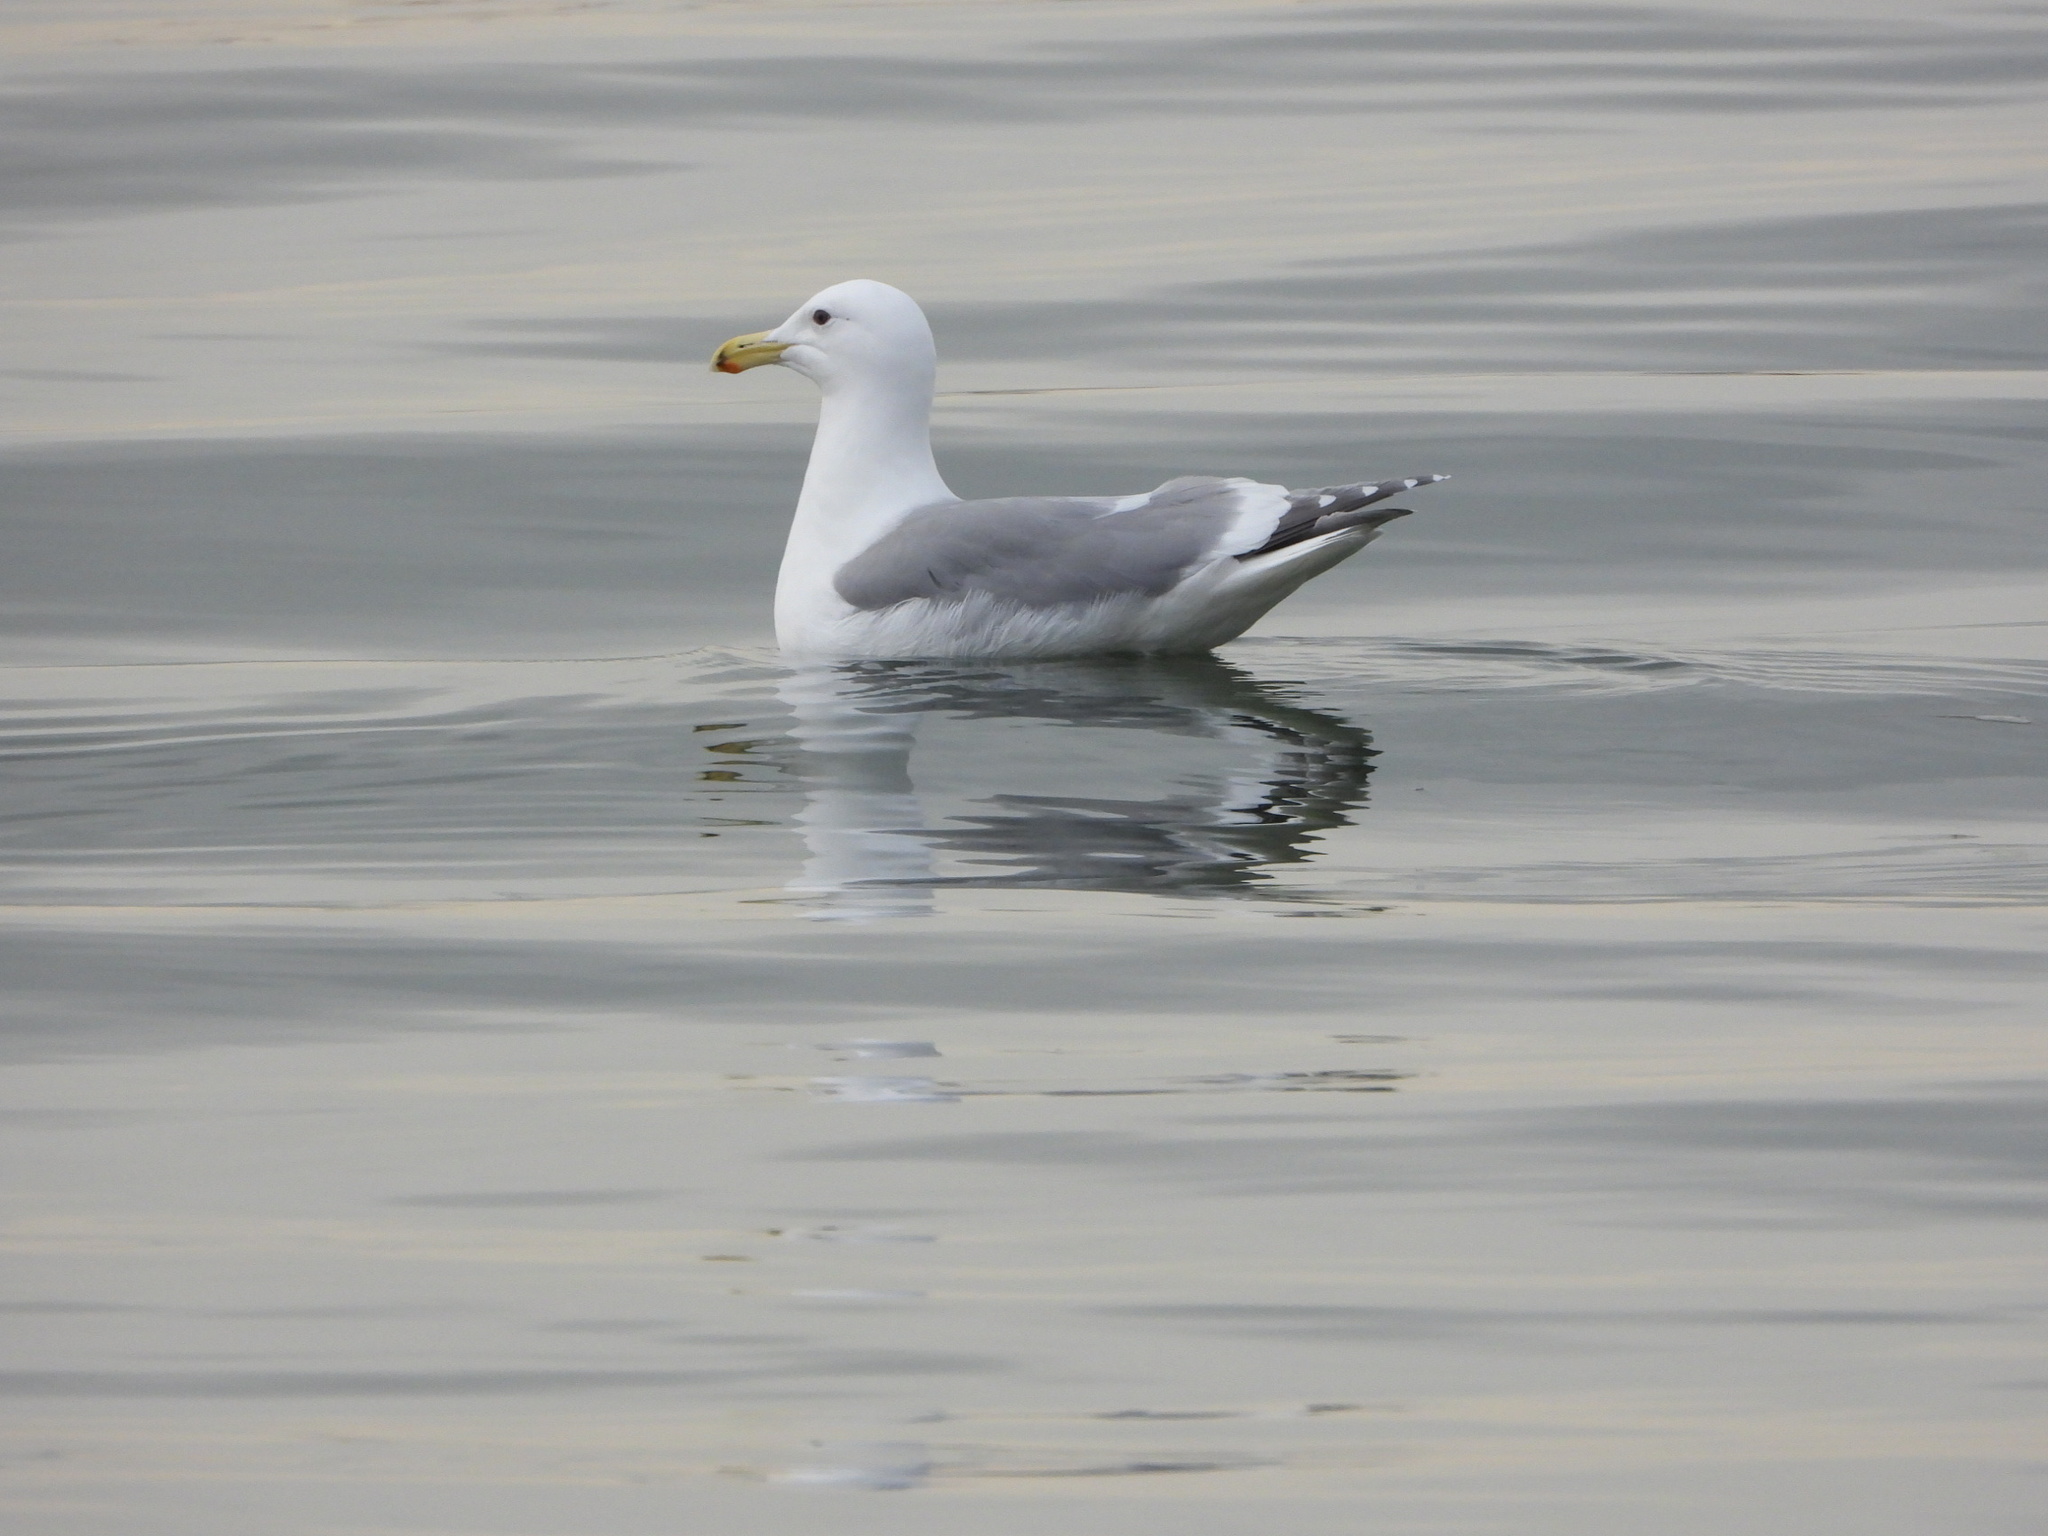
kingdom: Animalia
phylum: Chordata
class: Aves
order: Charadriiformes
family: Laridae
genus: Larus
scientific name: Larus
